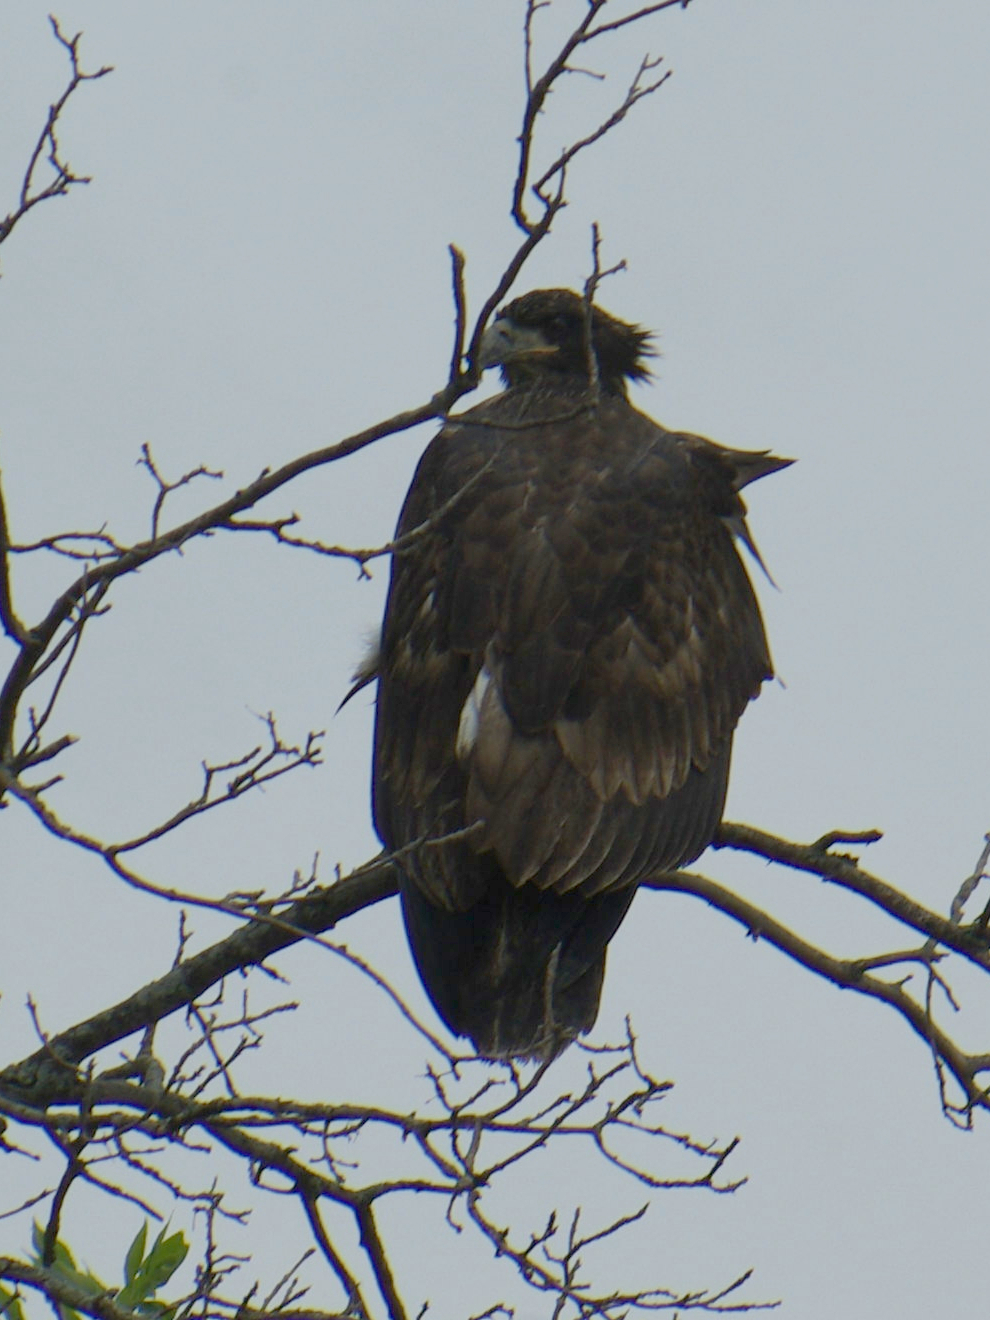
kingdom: Animalia
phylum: Chordata
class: Aves
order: Accipitriformes
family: Accipitridae
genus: Haliaeetus
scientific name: Haliaeetus leucocephalus
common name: Bald eagle
